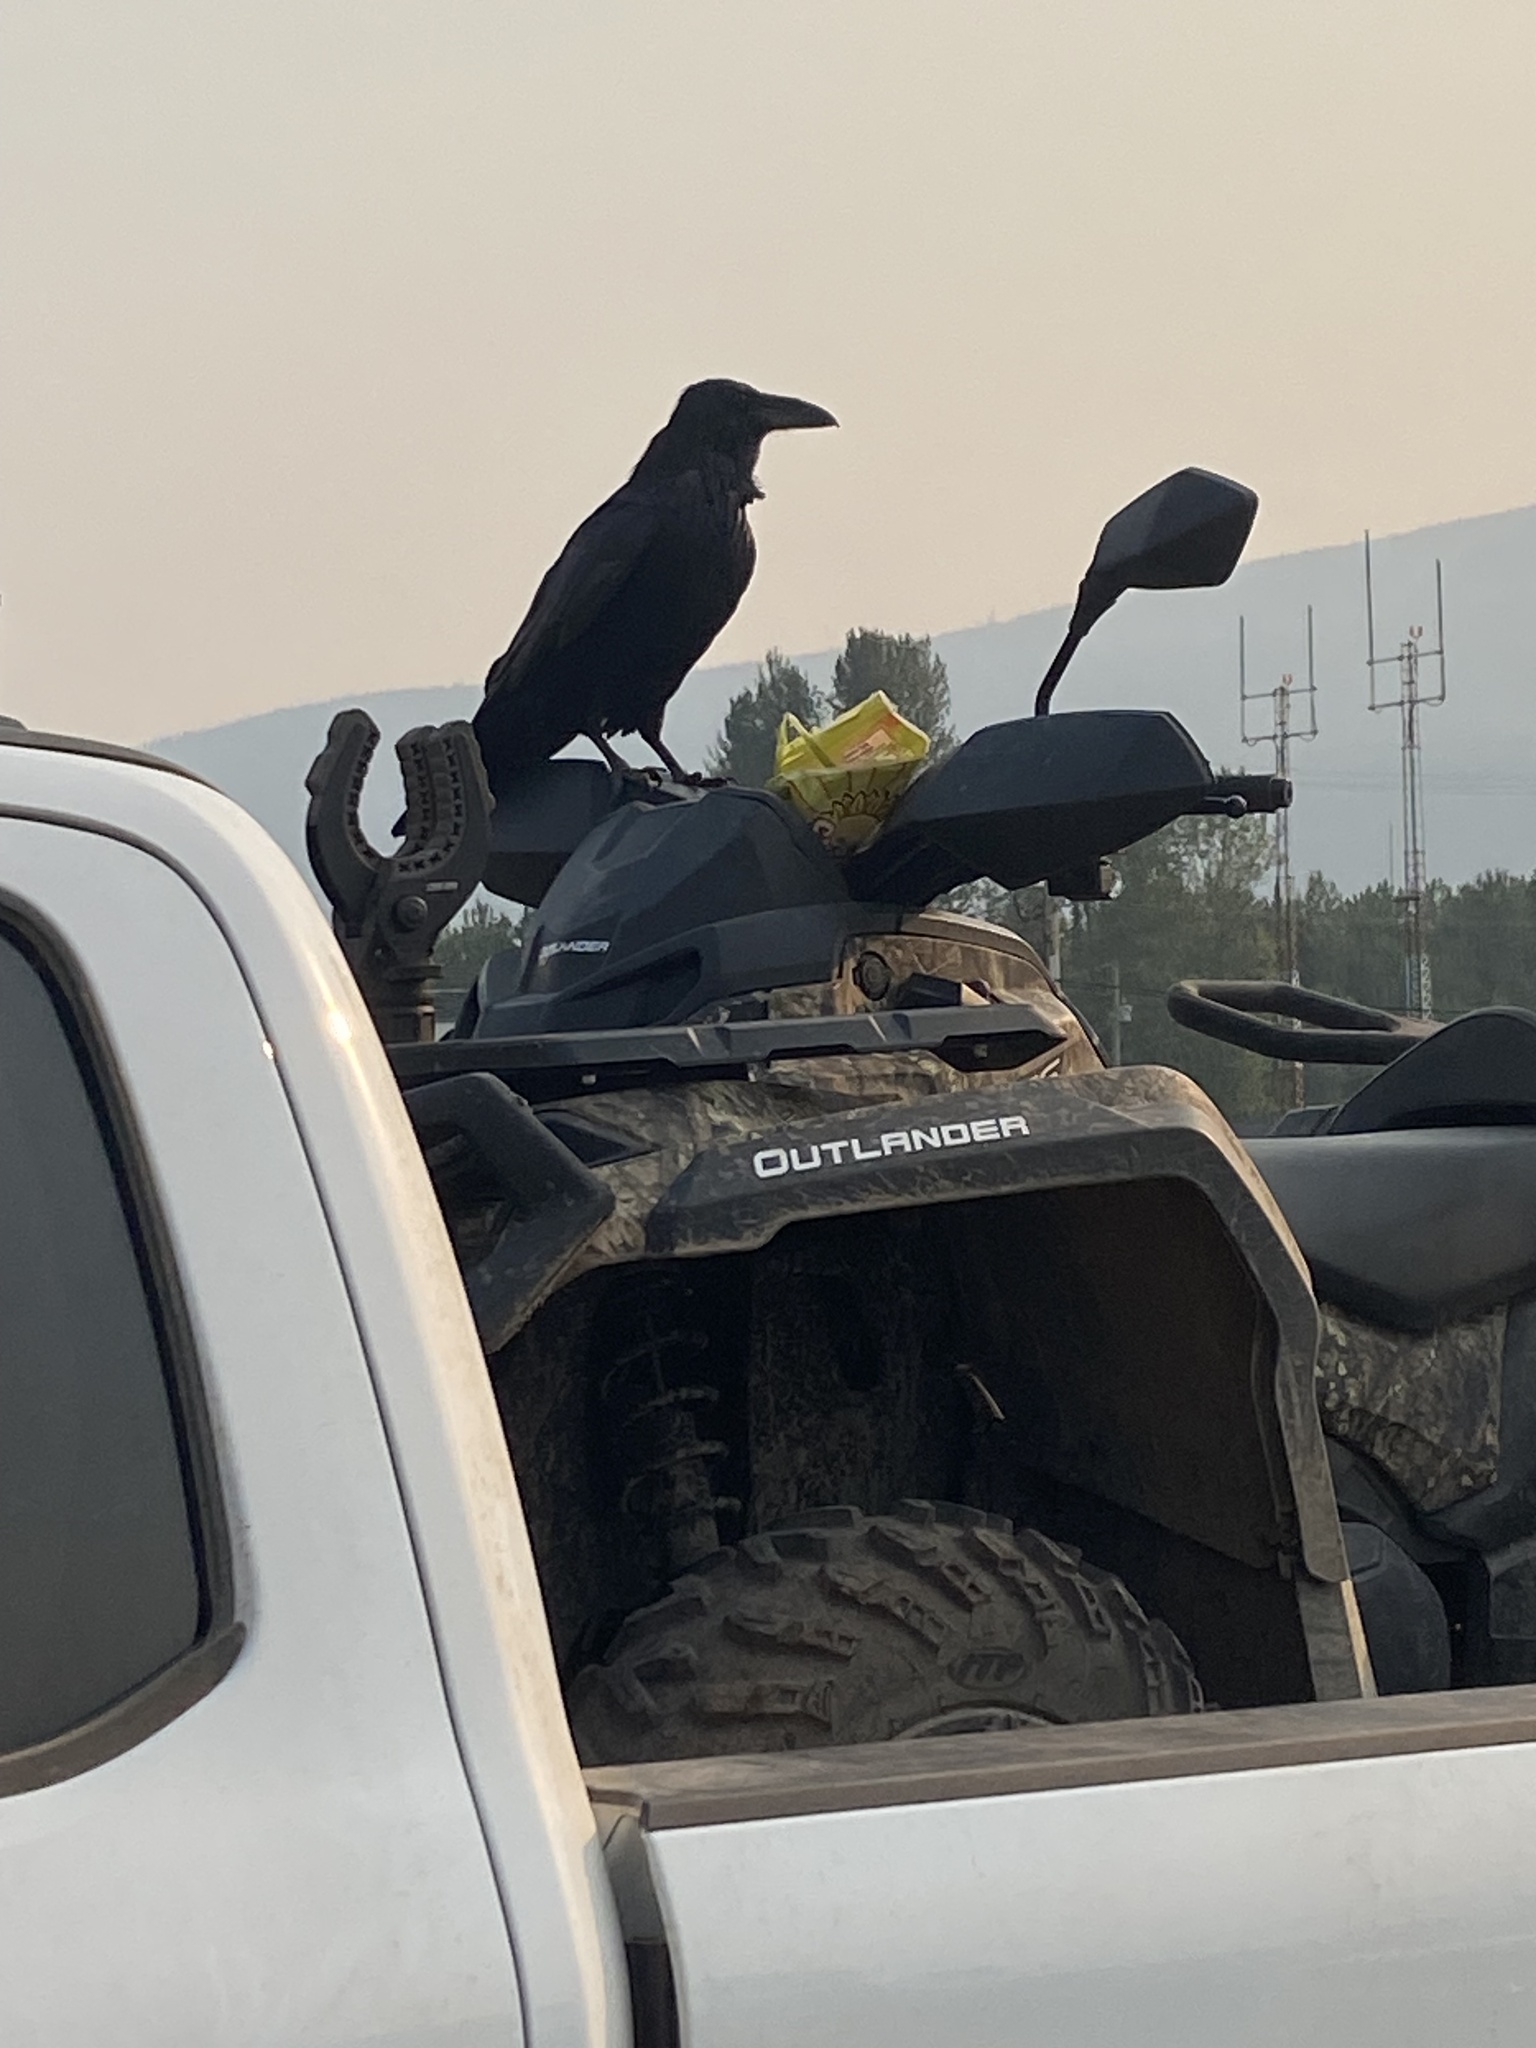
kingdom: Animalia
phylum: Chordata
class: Aves
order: Passeriformes
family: Corvidae
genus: Corvus
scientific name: Corvus corax
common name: Common raven
